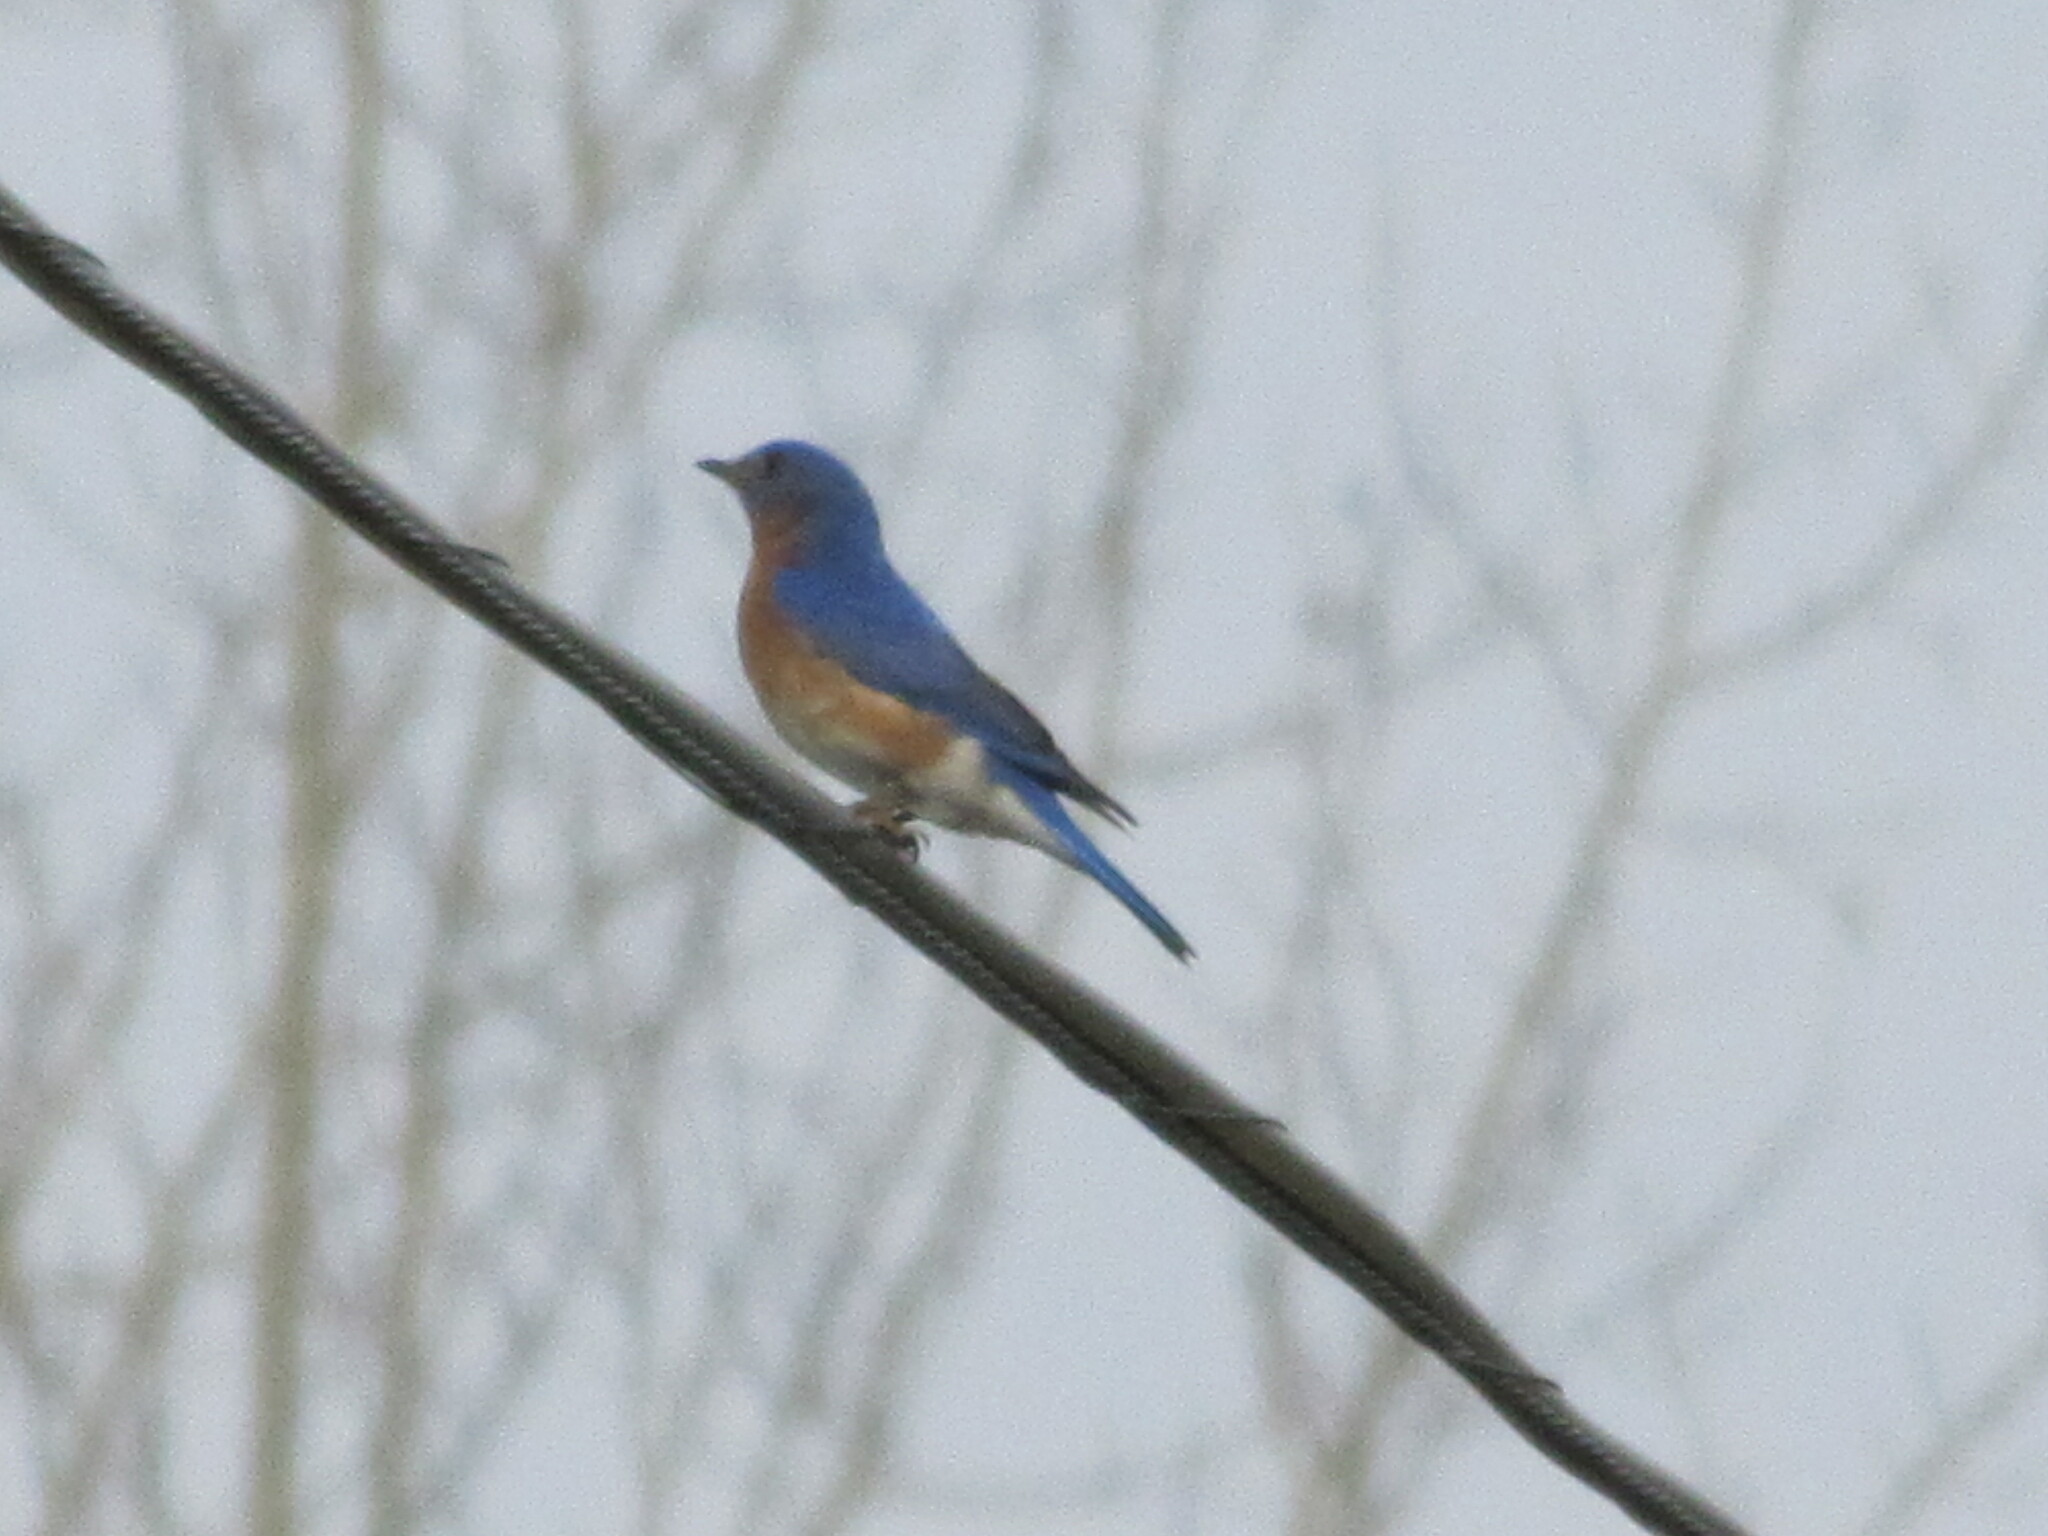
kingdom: Animalia
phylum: Chordata
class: Aves
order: Passeriformes
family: Turdidae
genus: Sialia
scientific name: Sialia sialis
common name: Eastern bluebird
